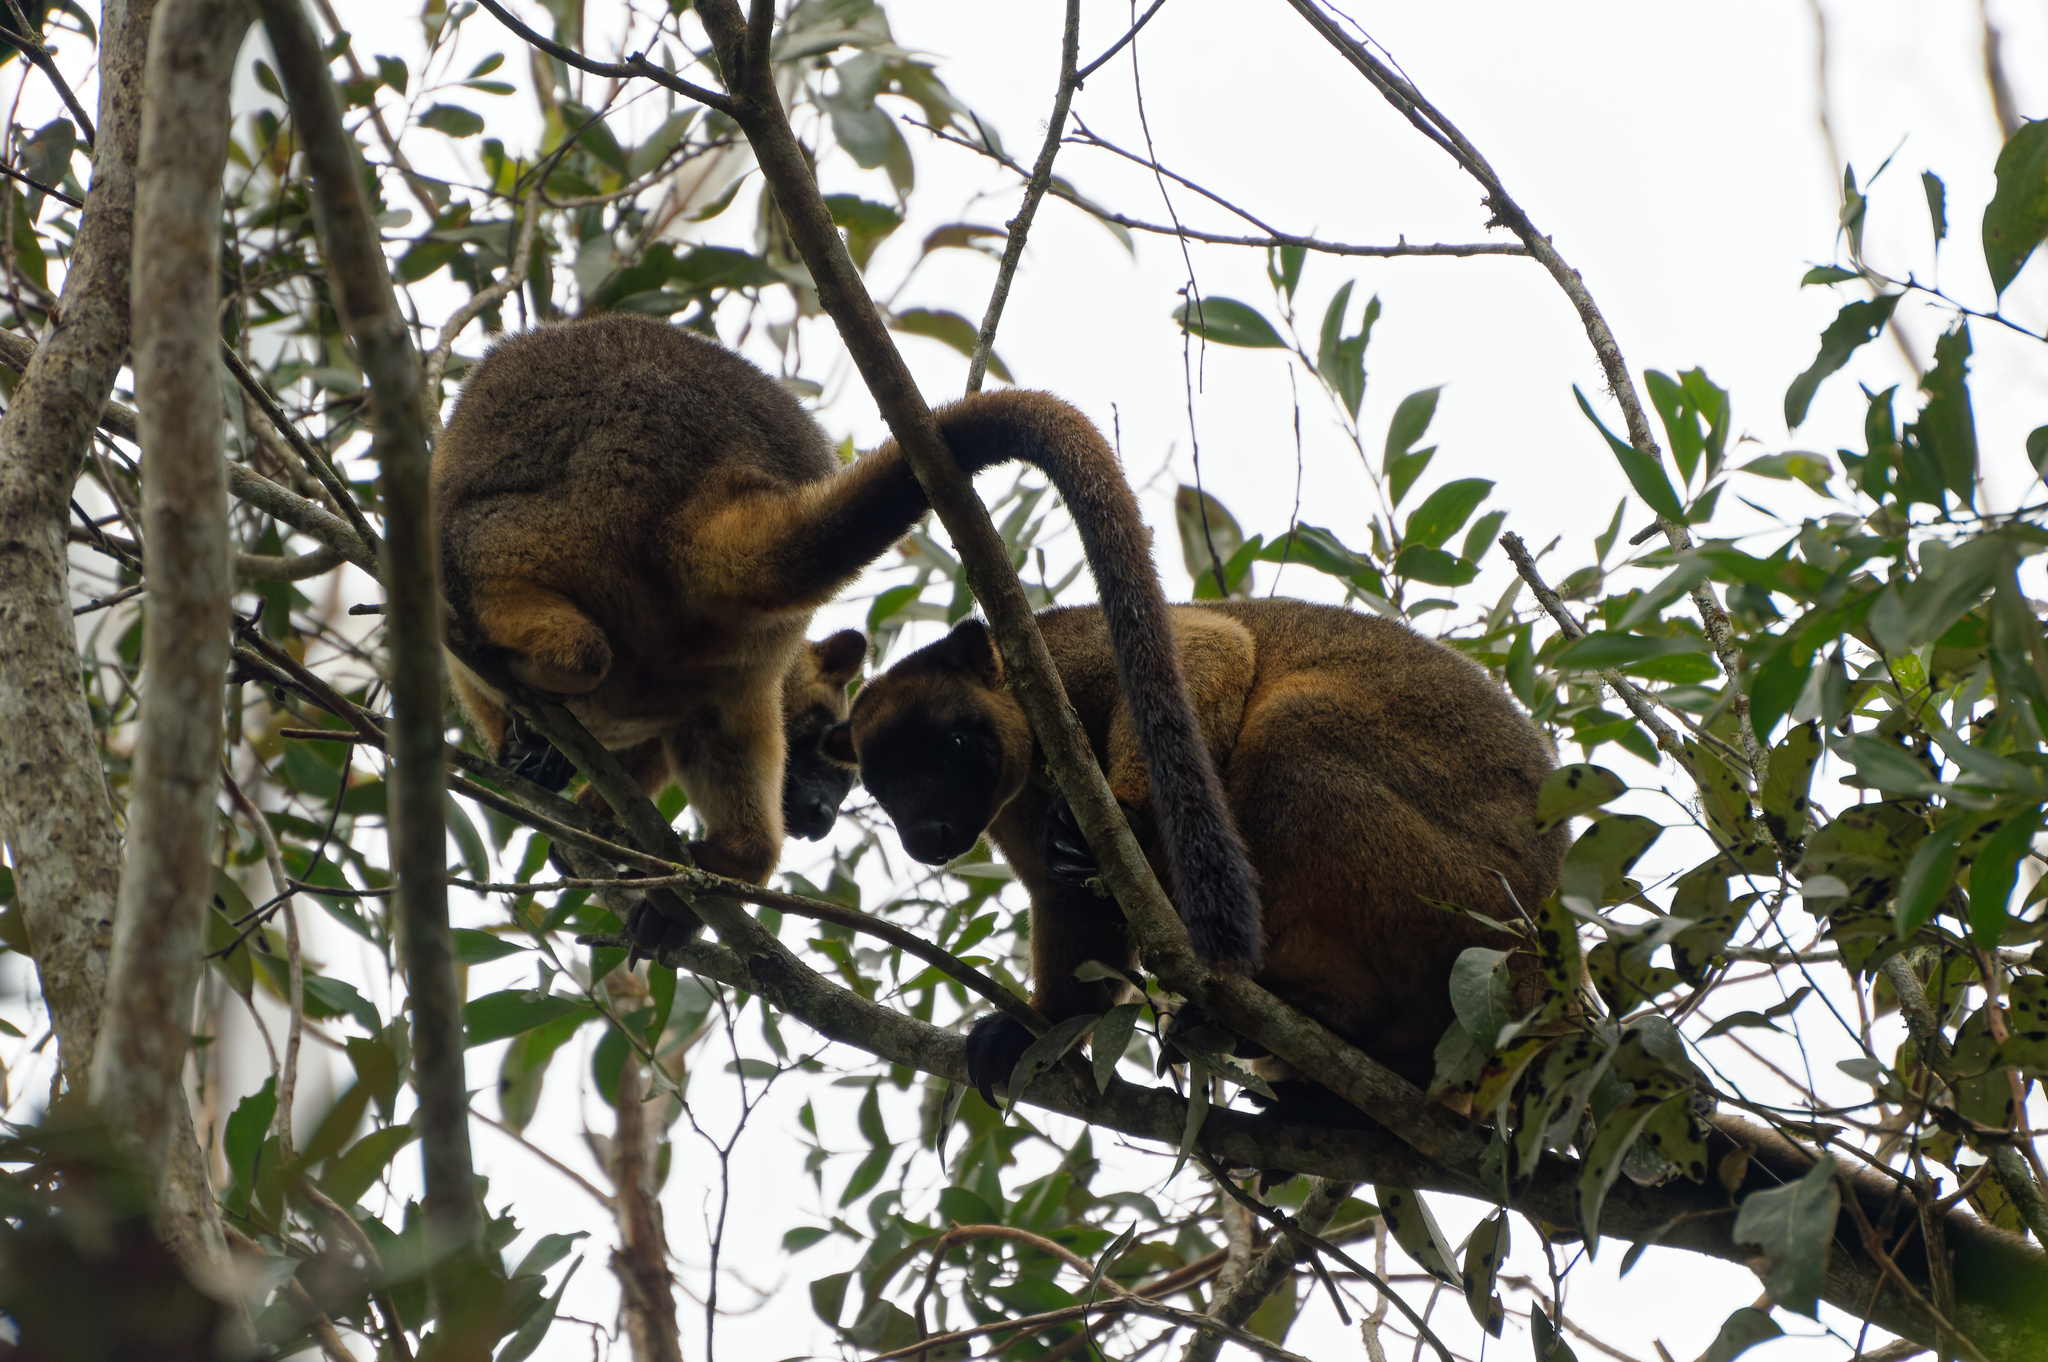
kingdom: Animalia
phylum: Chordata
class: Mammalia
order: Diprotodontia
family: Macropodidae
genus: Dendrolagus
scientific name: Dendrolagus lumholtzi
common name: Lumholtz's tree kangaroo
